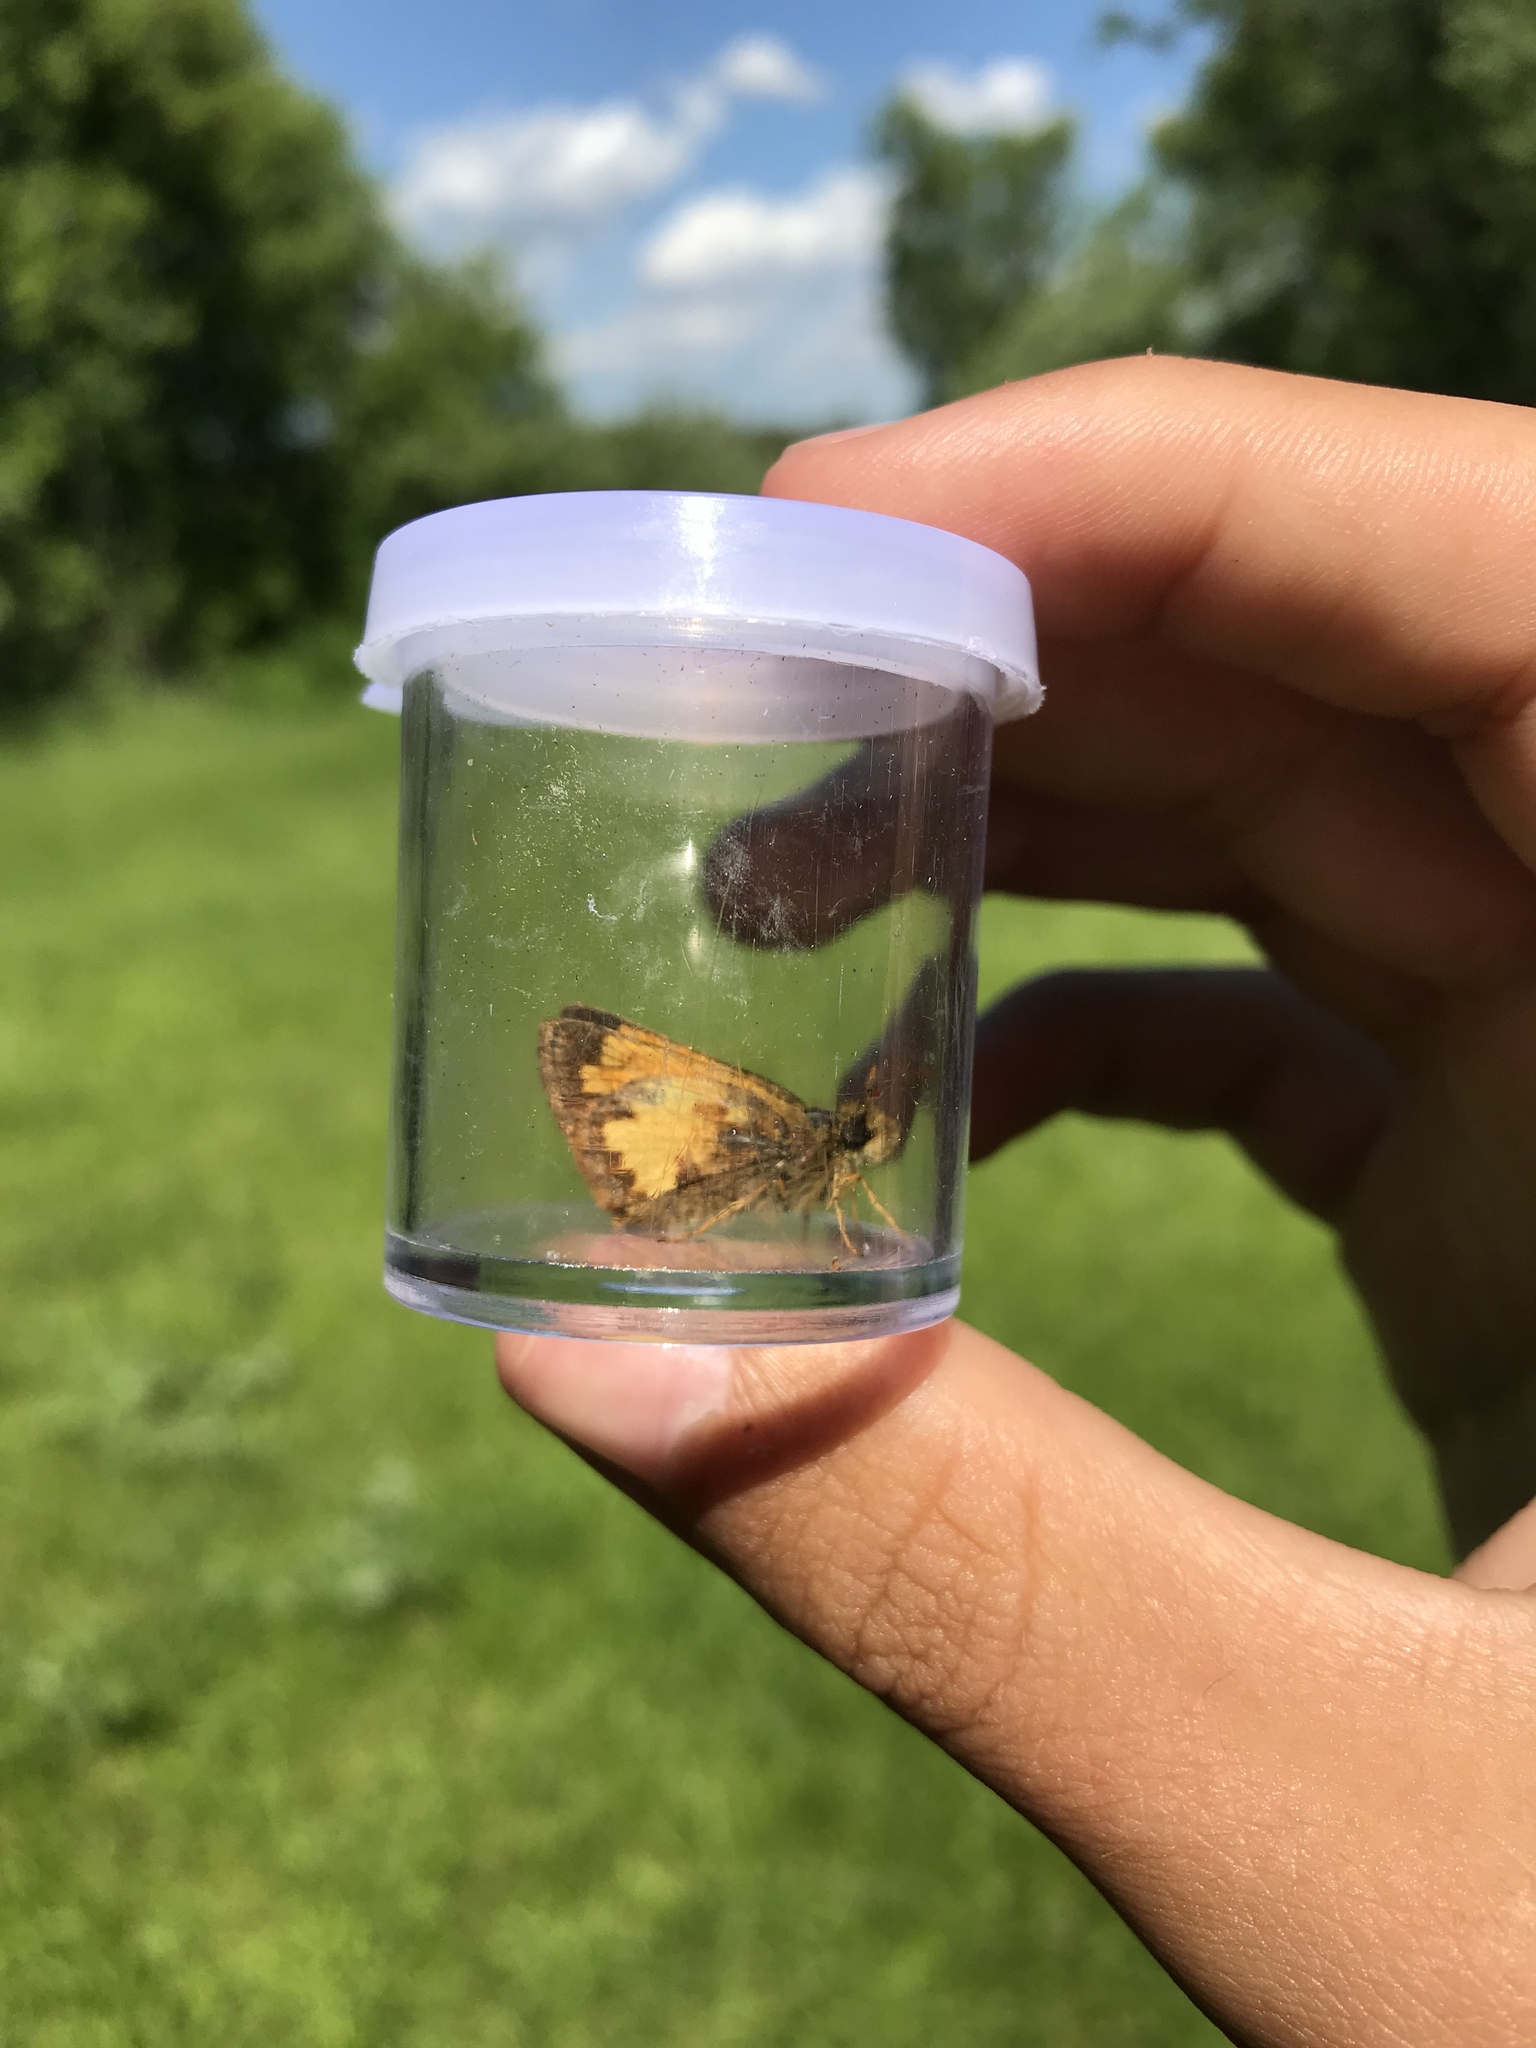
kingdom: Animalia
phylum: Arthropoda
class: Insecta
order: Lepidoptera
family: Hesperiidae
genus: Lon
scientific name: Lon hobomok
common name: Hobomok skipper
